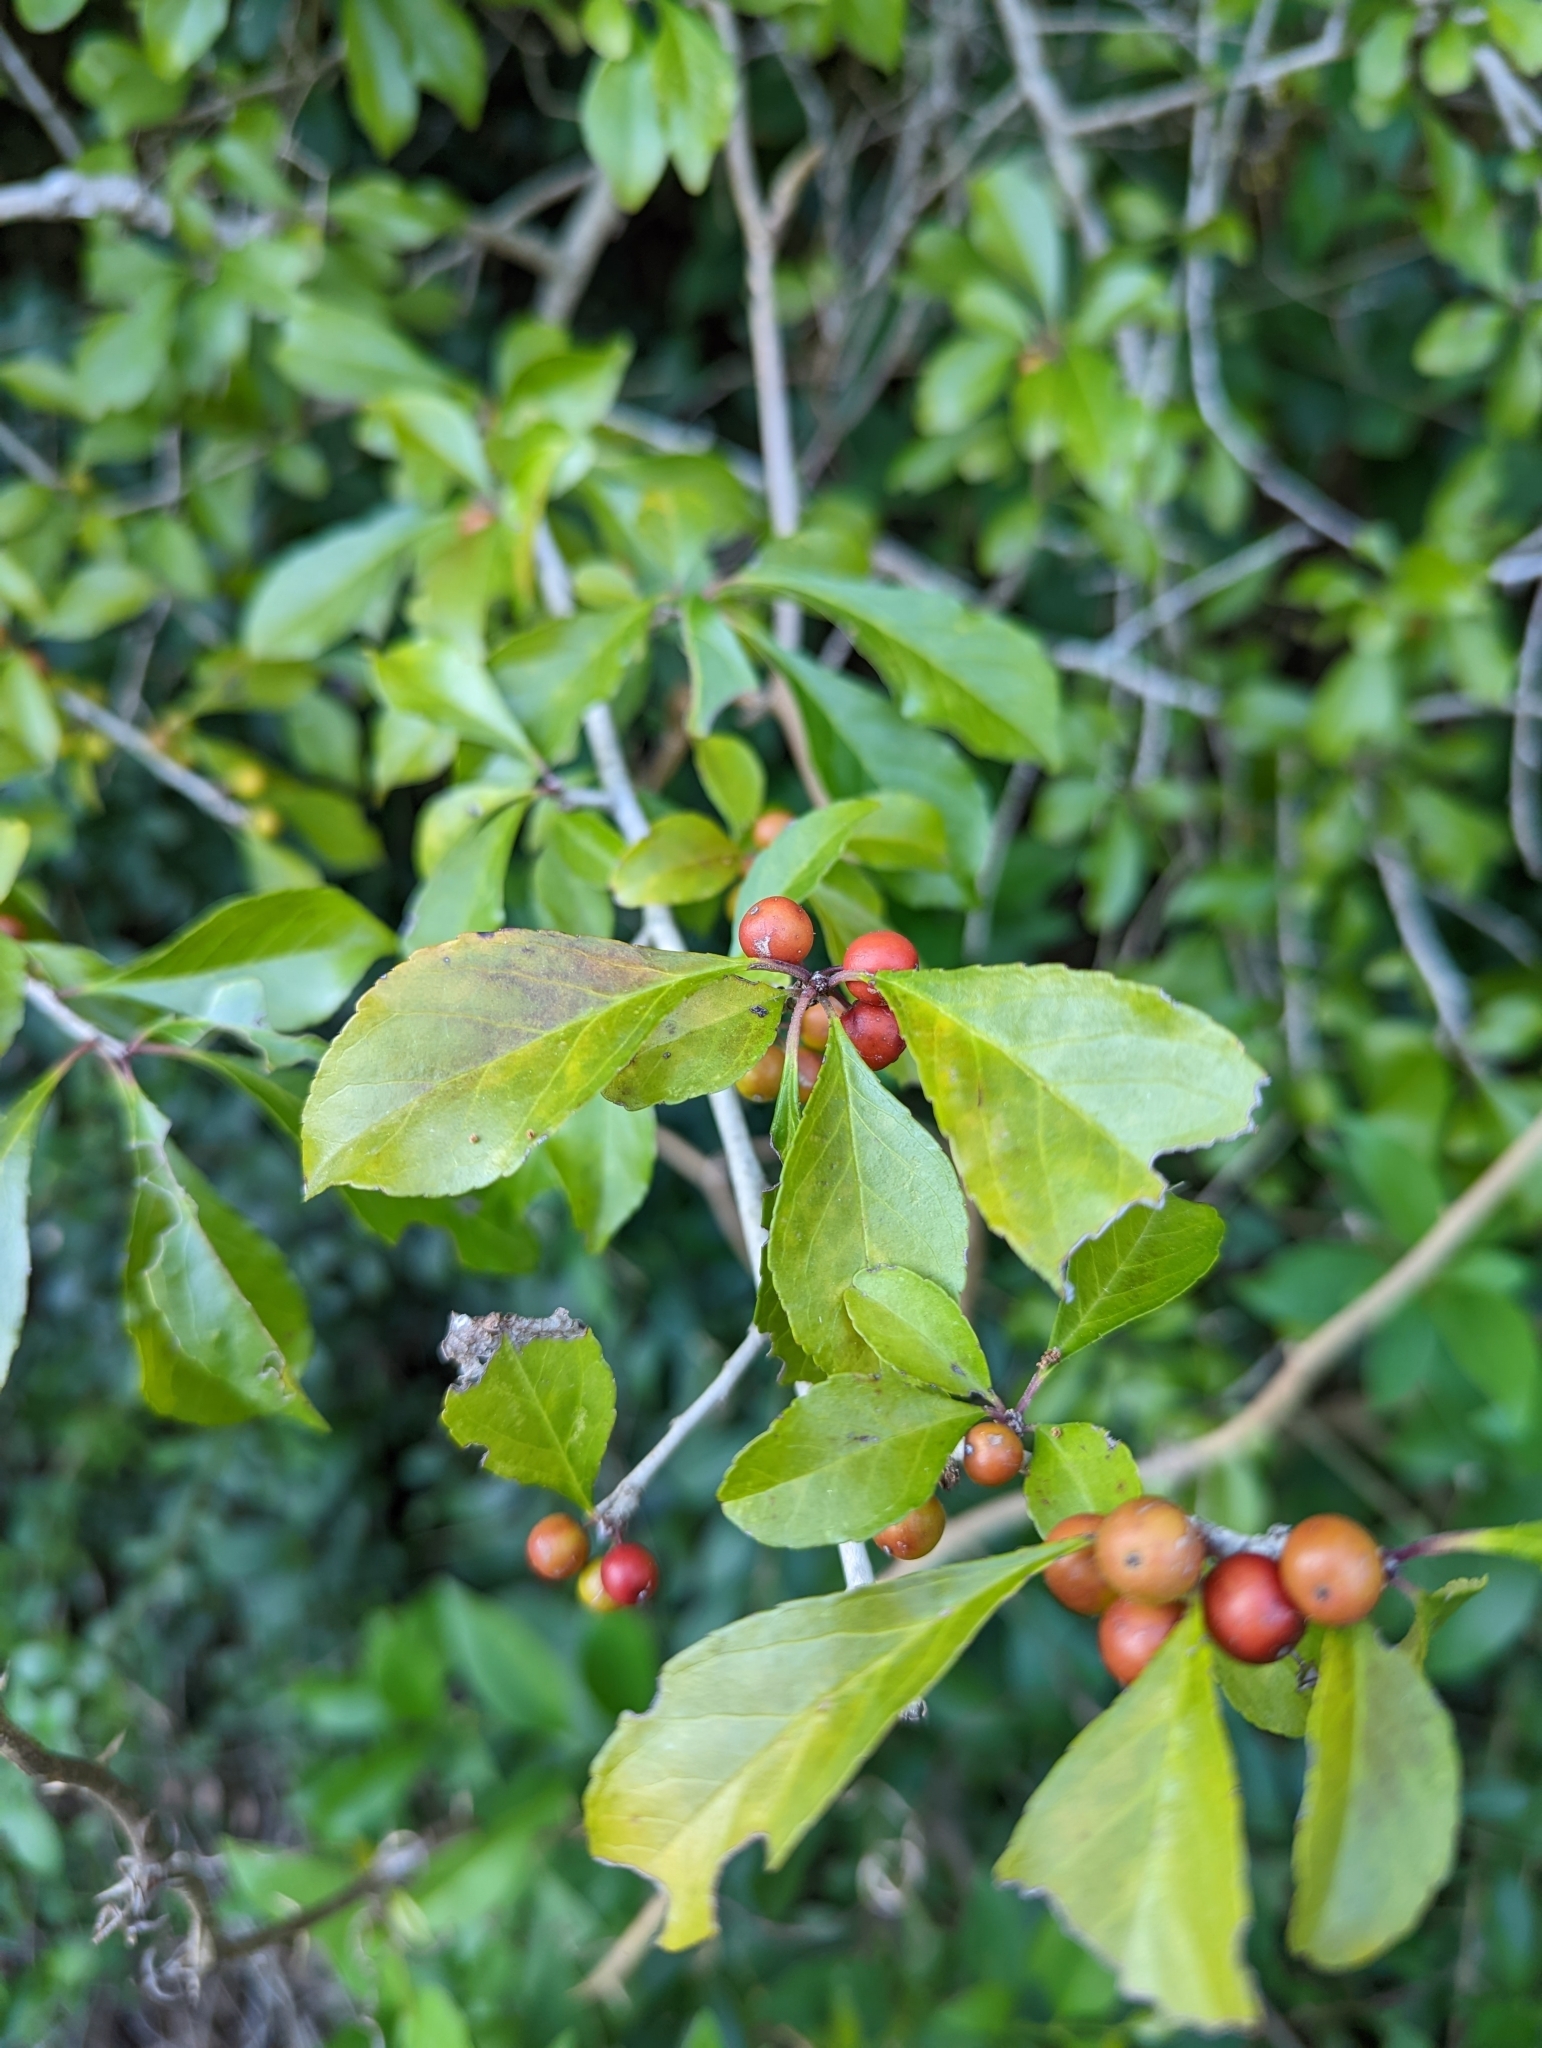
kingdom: Plantae
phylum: Tracheophyta
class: Magnoliopsida
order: Aquifoliales
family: Aquifoliaceae
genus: Ilex
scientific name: Ilex decidua
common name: Possum-haw
